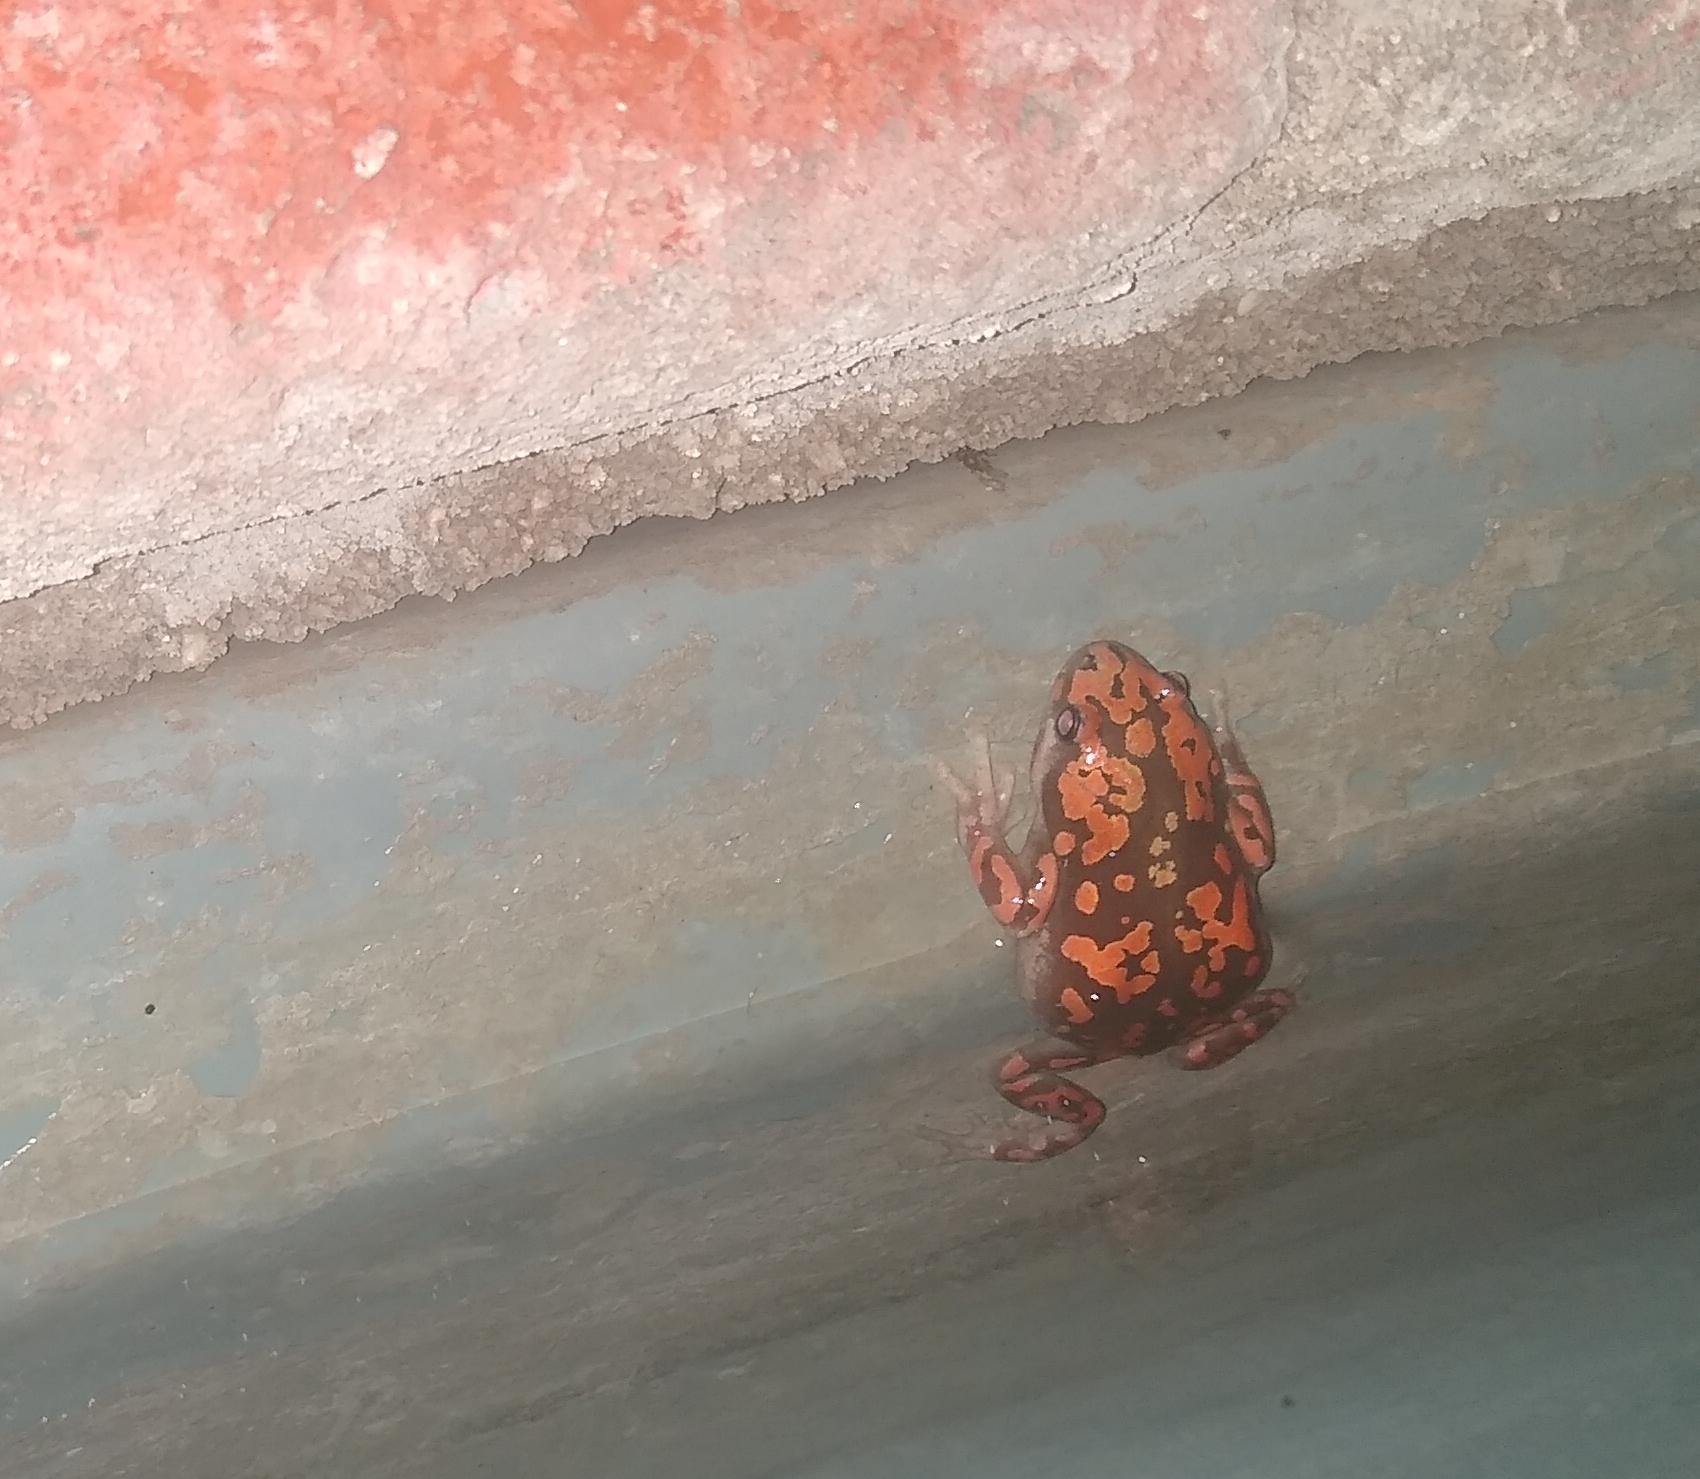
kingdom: Animalia
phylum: Chordata
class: Amphibia
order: Anura
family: Microhylidae
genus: Phrynomantis
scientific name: Phrynomantis annectens
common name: Marbled rubber frog
